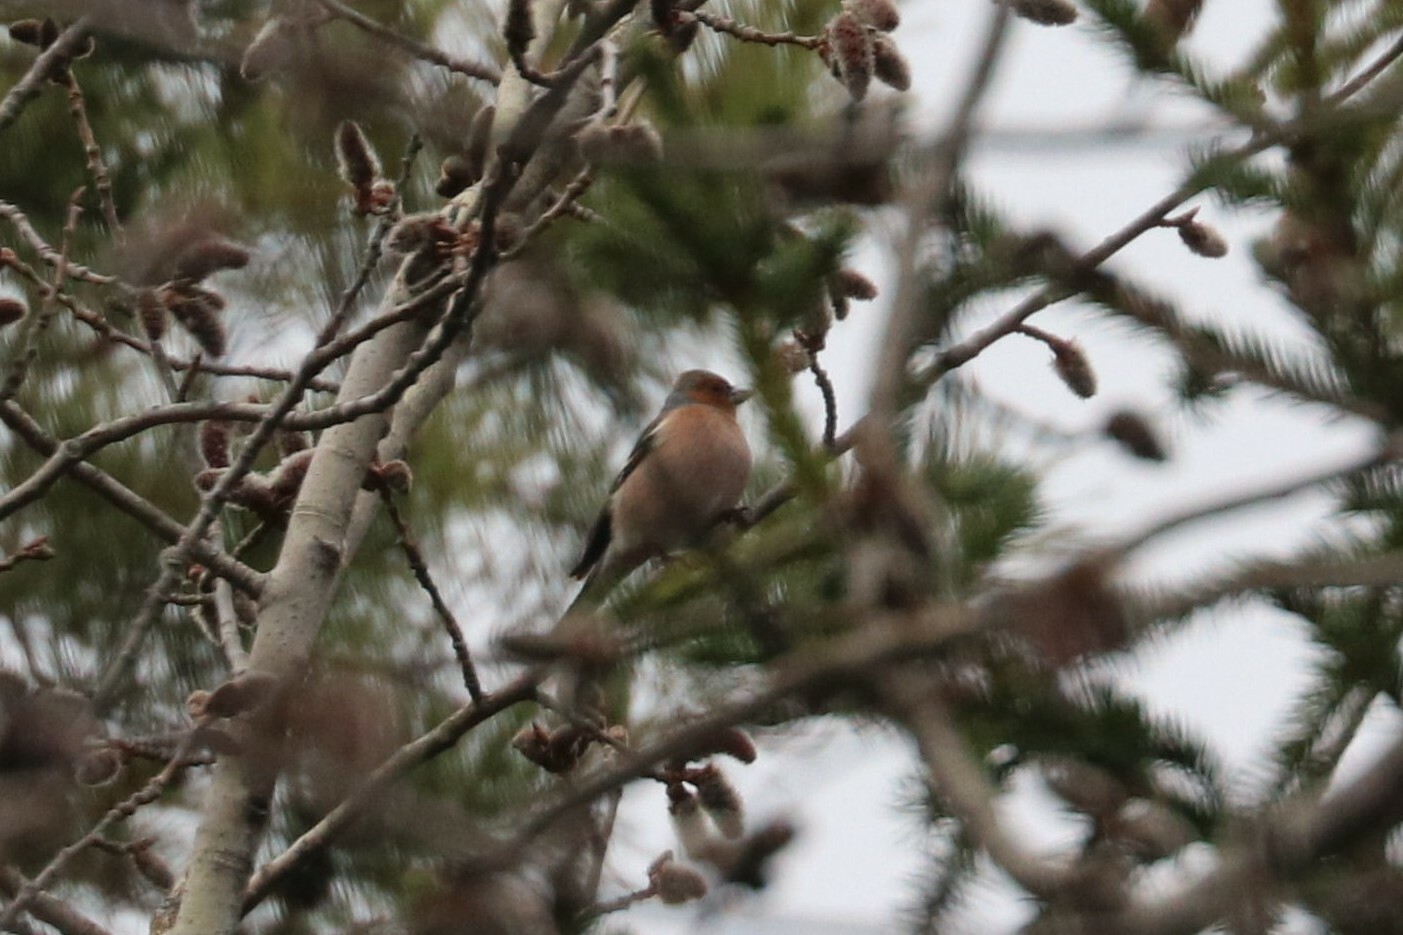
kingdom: Animalia
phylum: Chordata
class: Aves
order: Passeriformes
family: Fringillidae
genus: Fringilla
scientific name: Fringilla coelebs
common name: Common chaffinch
